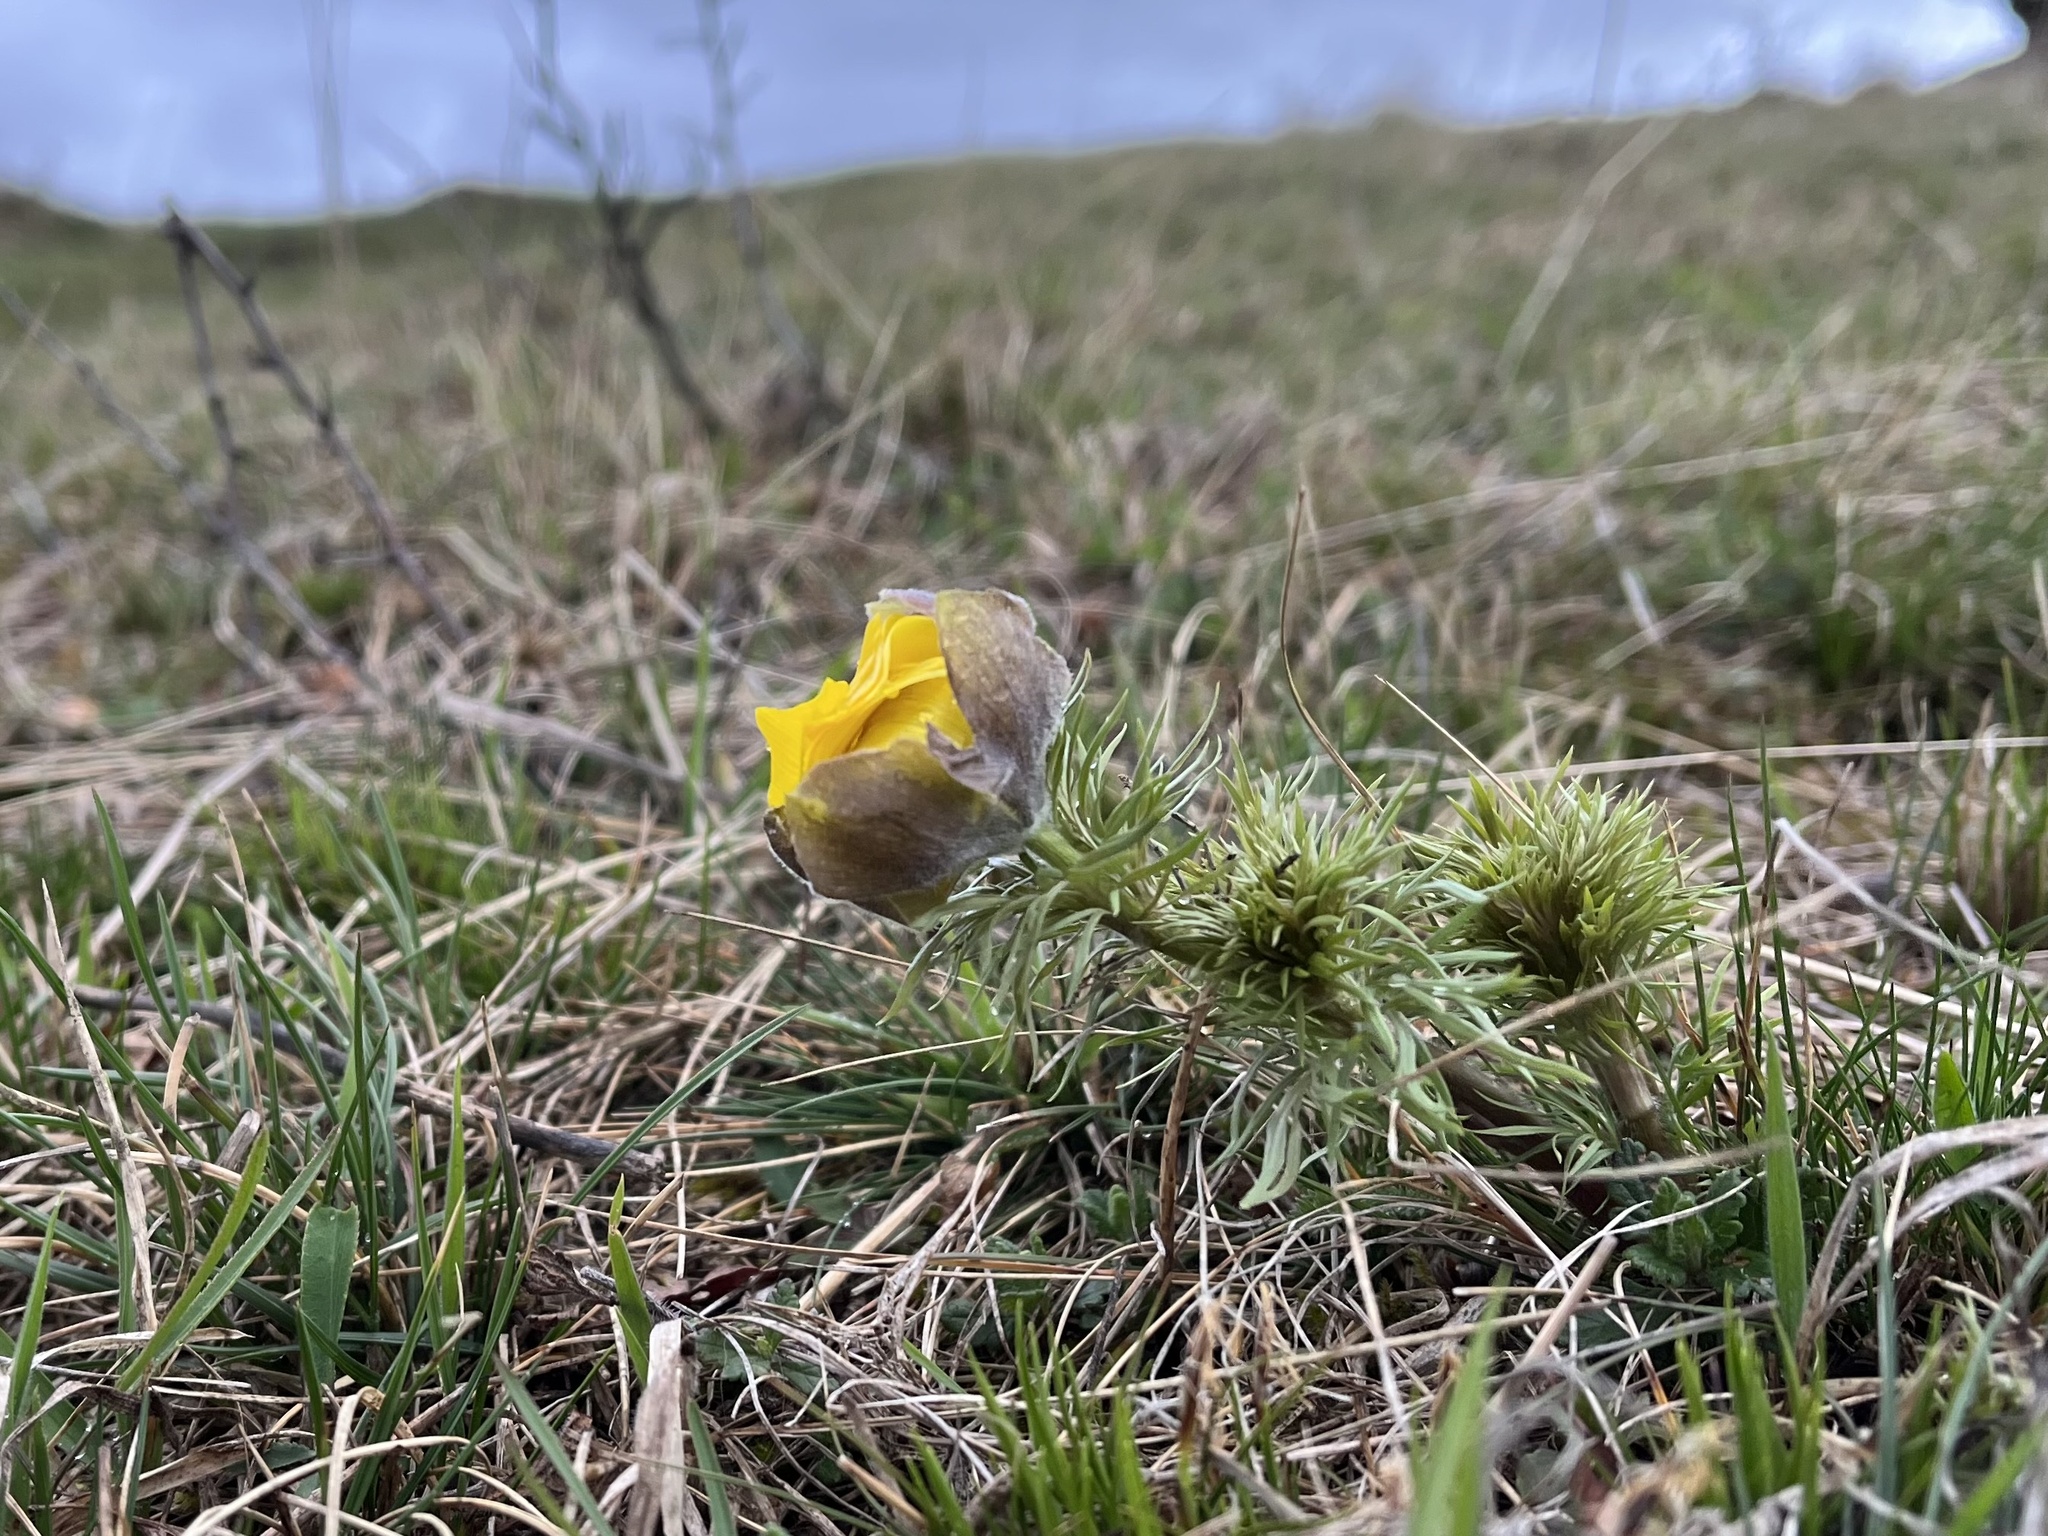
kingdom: Plantae
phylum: Tracheophyta
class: Magnoliopsida
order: Ranunculales
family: Ranunculaceae
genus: Adonis
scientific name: Adonis vernalis
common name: Yellow pheasants-eye
